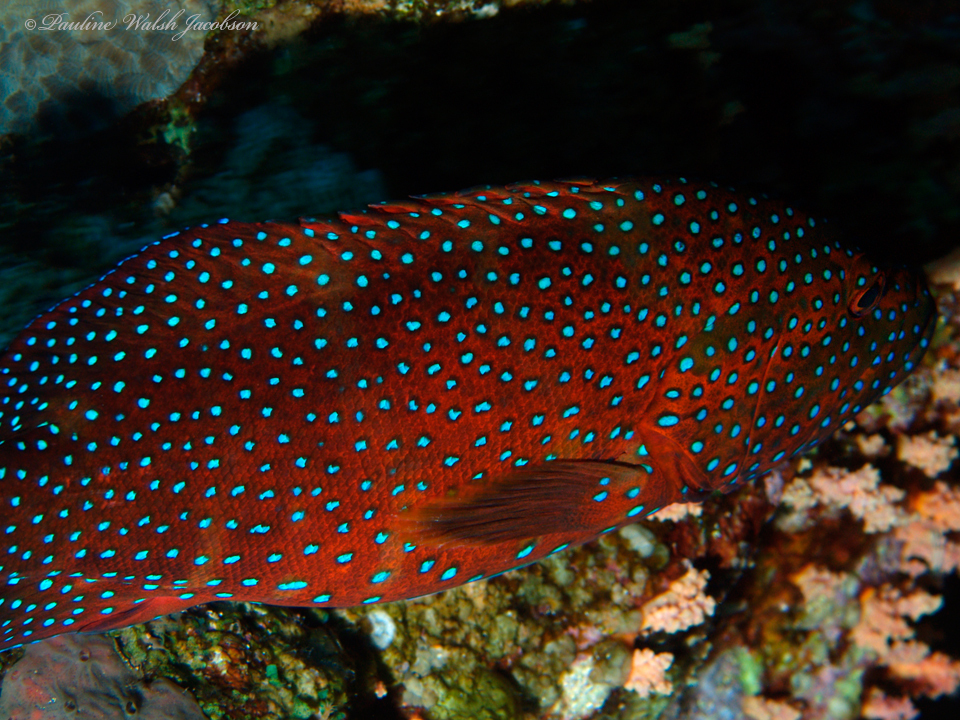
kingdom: Animalia
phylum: Chordata
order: Perciformes
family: Serranidae
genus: Cephalopholis
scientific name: Cephalopholis miniata
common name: Coral hind
